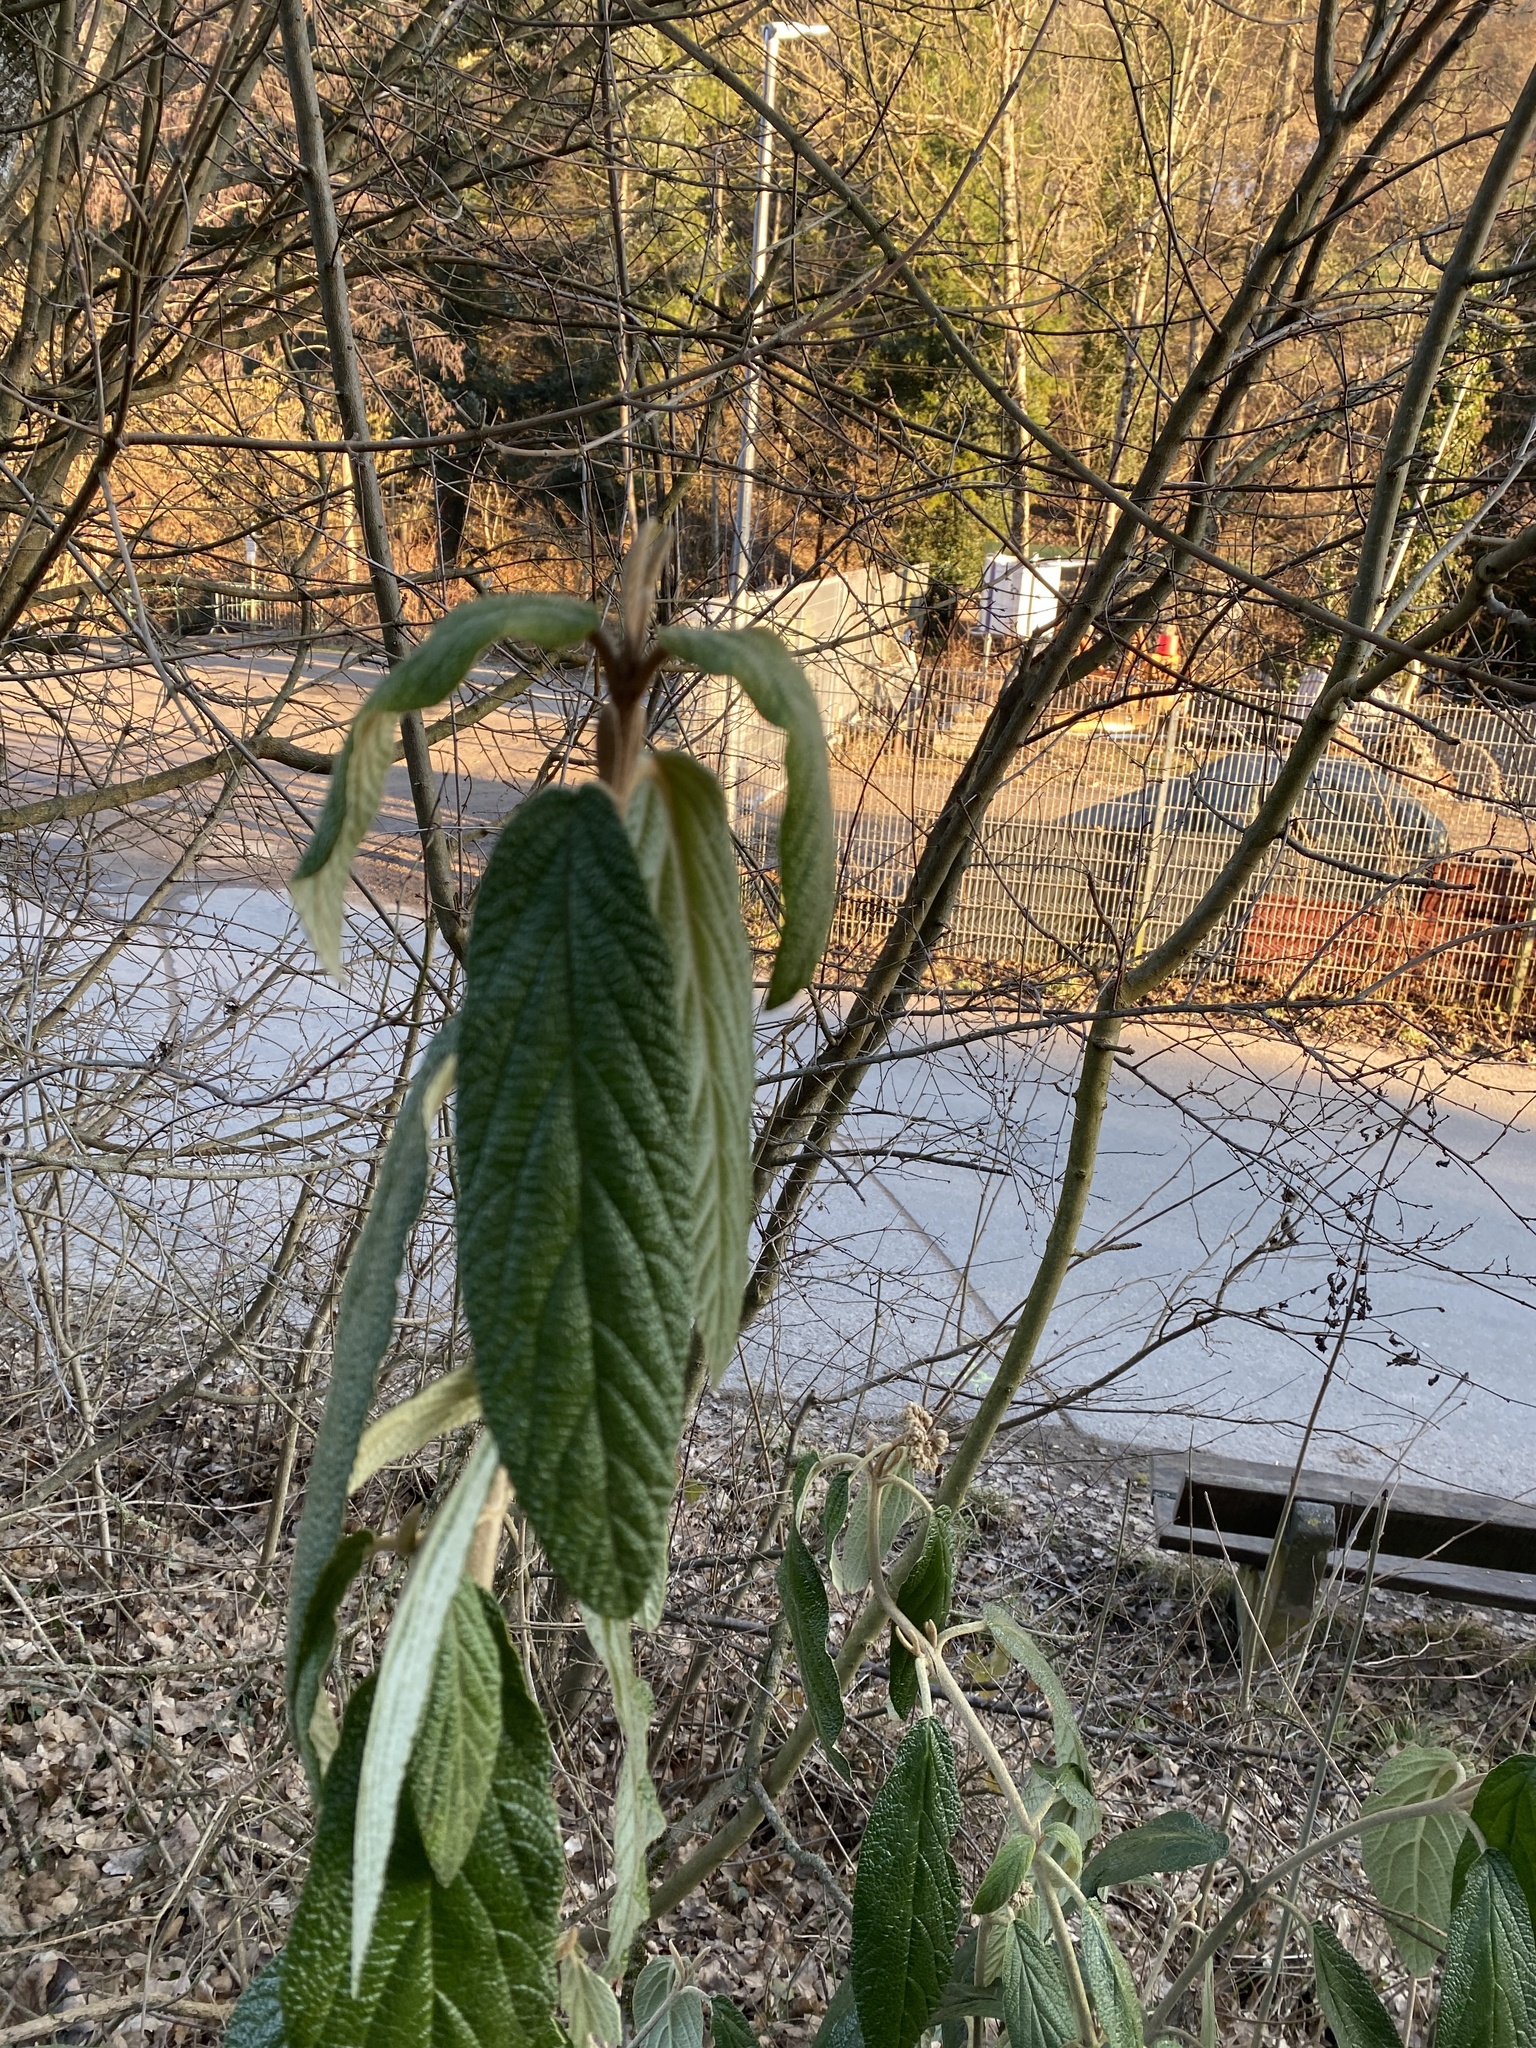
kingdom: Plantae
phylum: Tracheophyta
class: Magnoliopsida
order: Dipsacales
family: Viburnaceae
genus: Viburnum
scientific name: Viburnum rhytidophyllum
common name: Wrinkled viburnum
